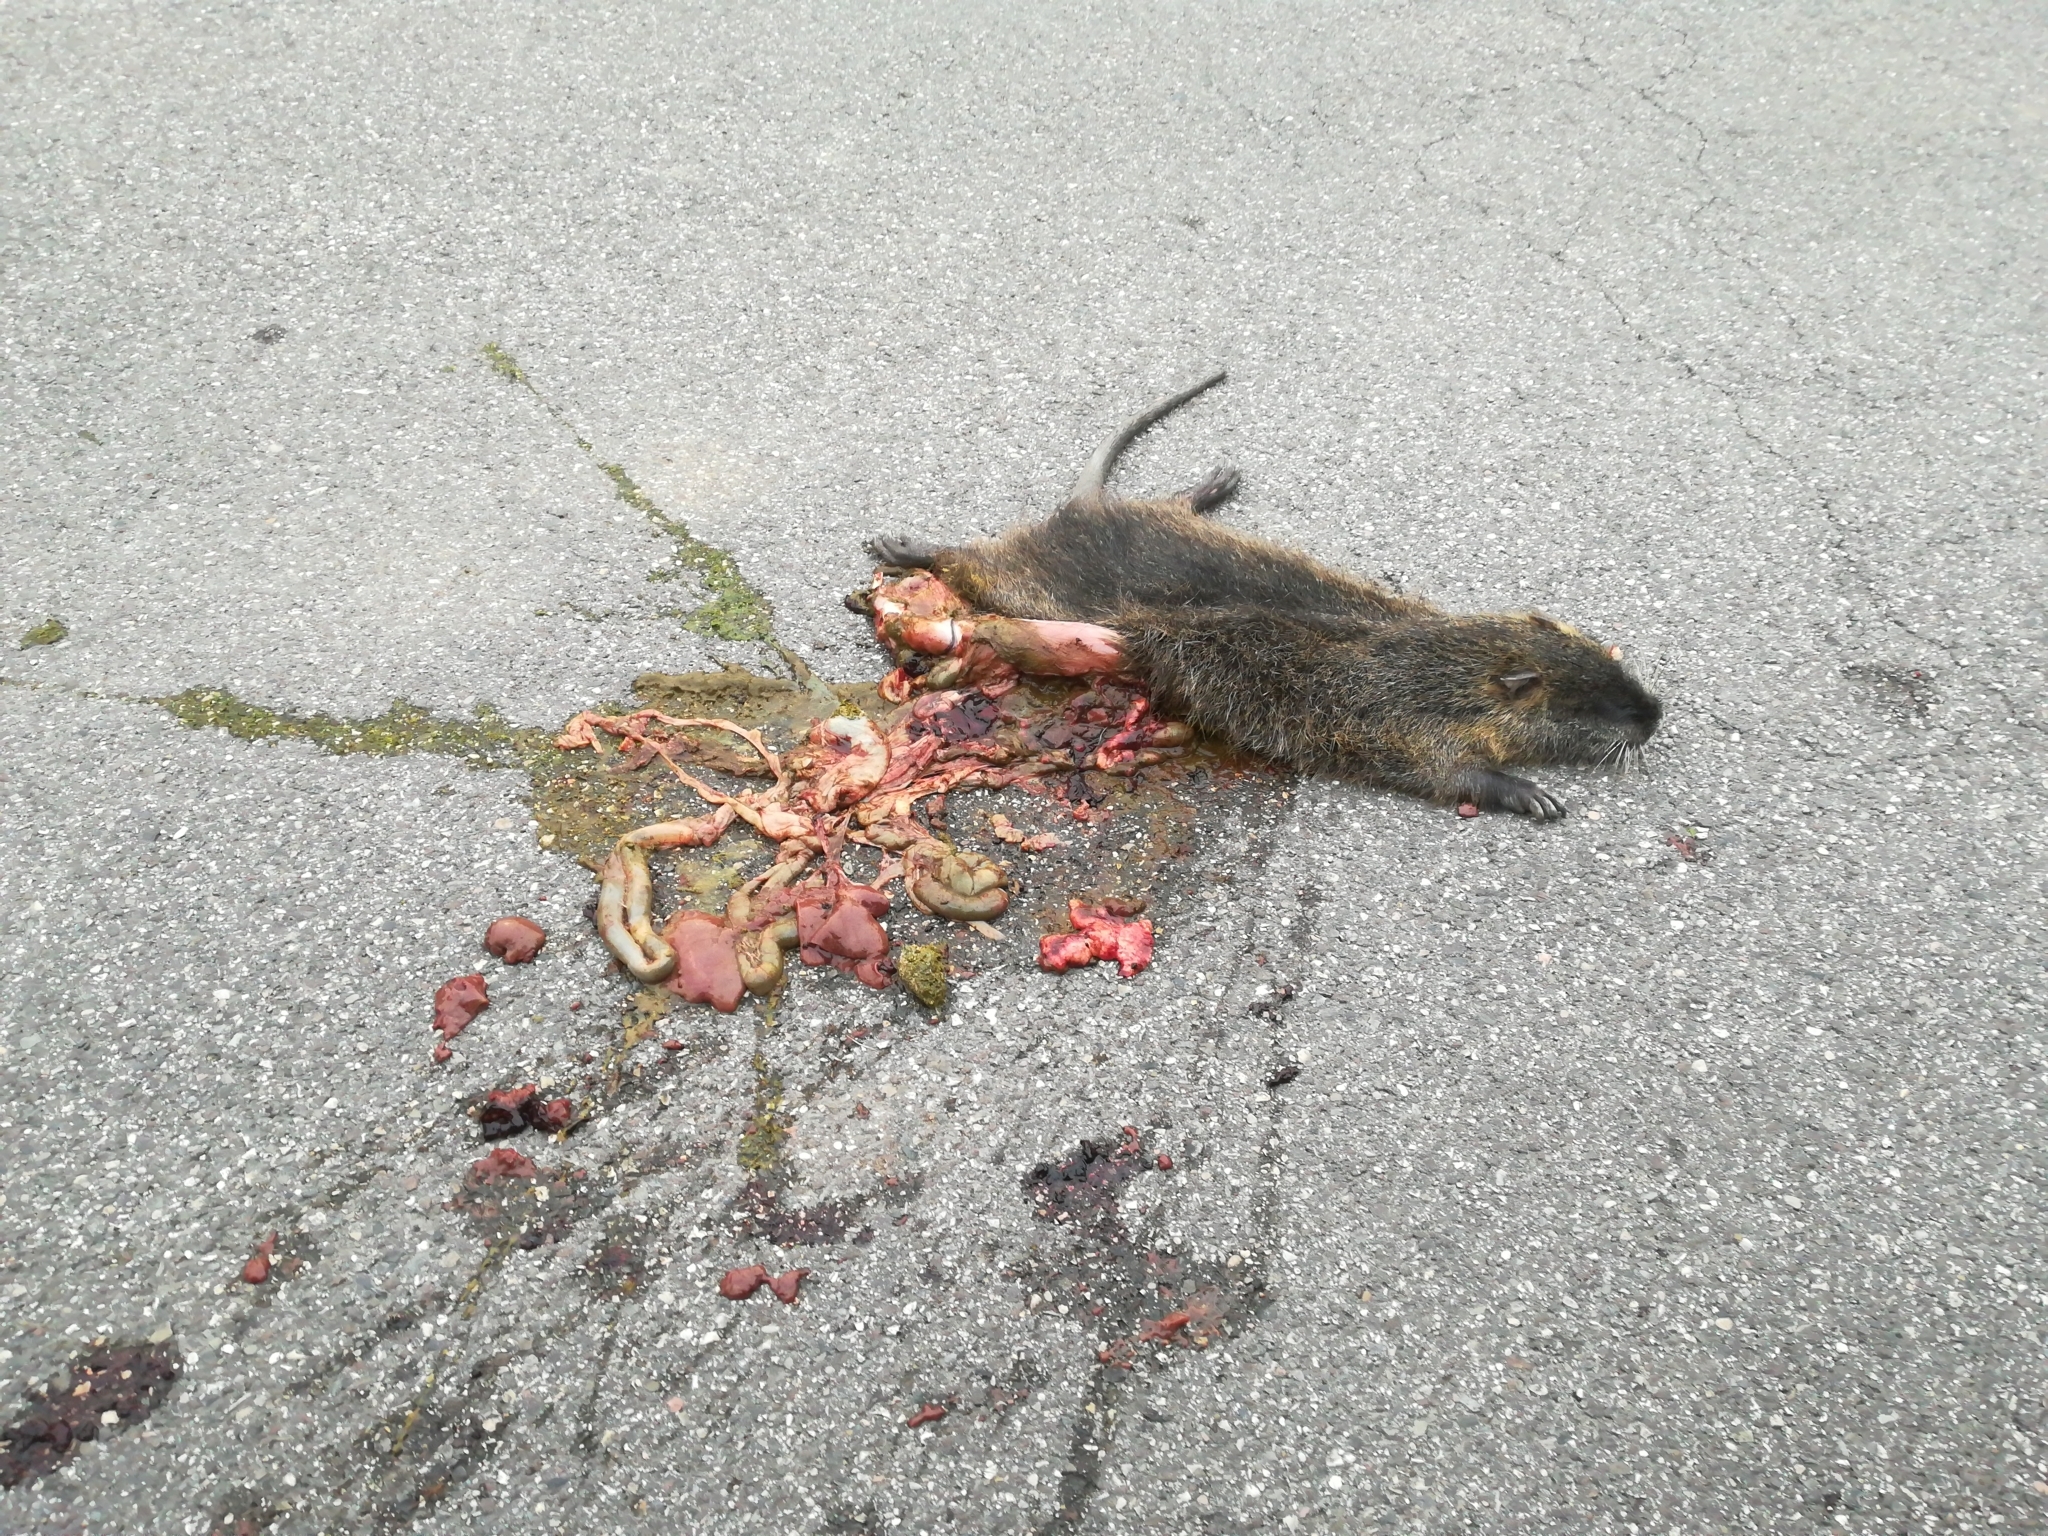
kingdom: Animalia
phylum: Chordata
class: Mammalia
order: Rodentia
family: Myocastoridae
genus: Myocastor
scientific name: Myocastor coypus
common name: Coypu
